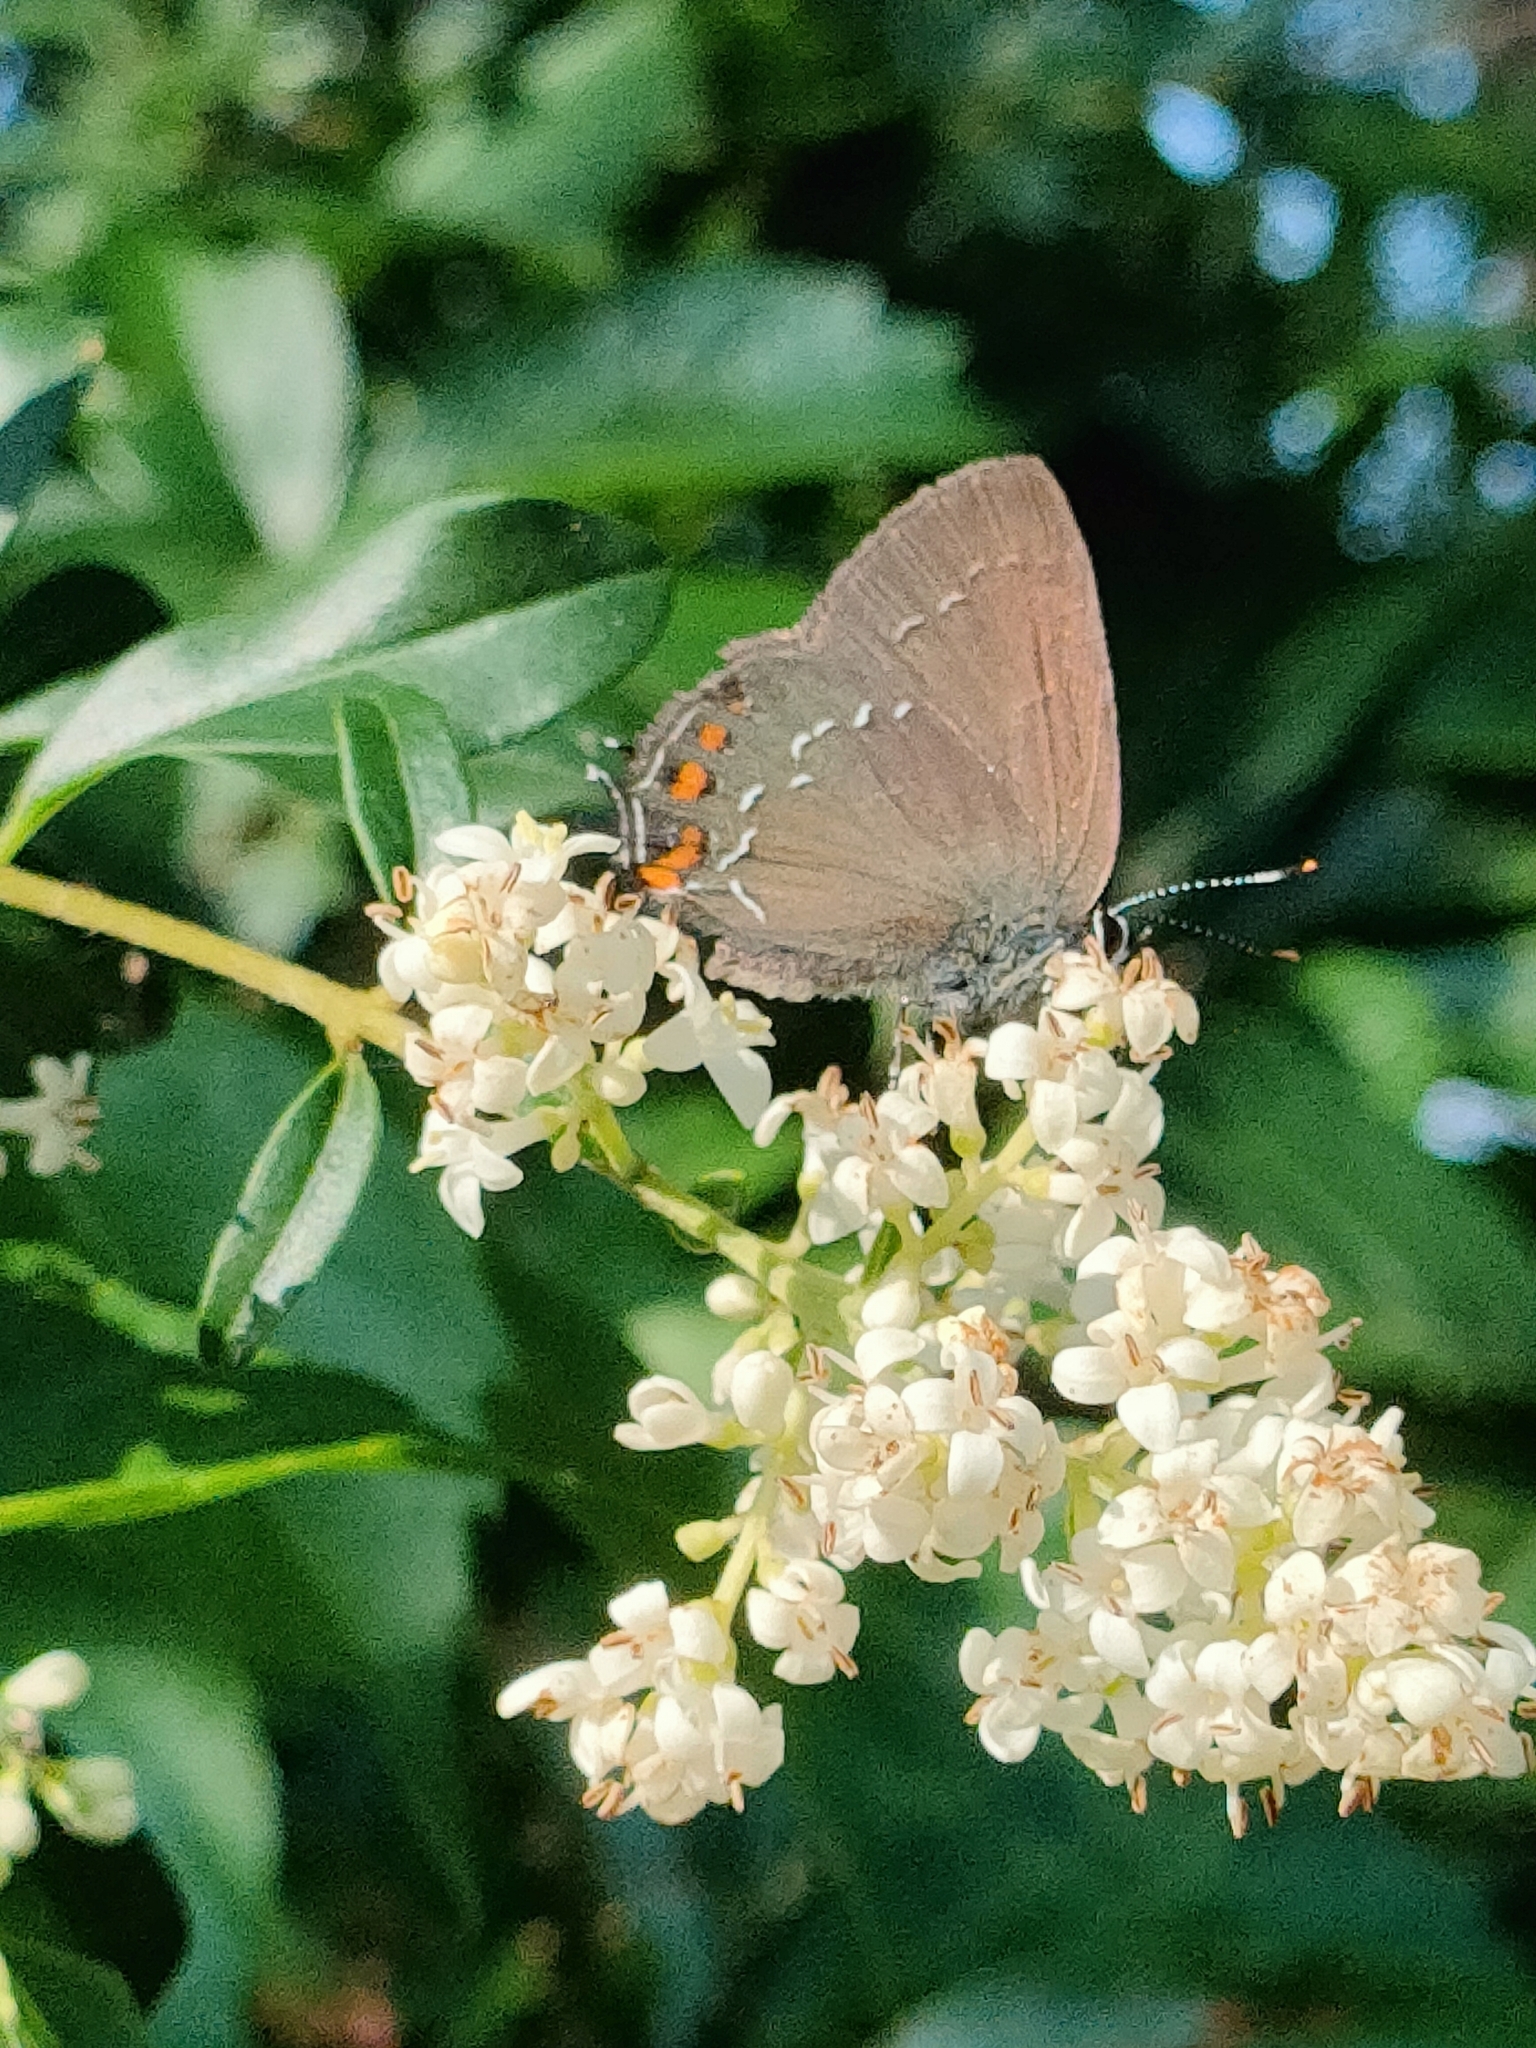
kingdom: Animalia
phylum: Arthropoda
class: Insecta
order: Lepidoptera
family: Lycaenidae
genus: Nordmannia
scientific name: Nordmannia ilicis
